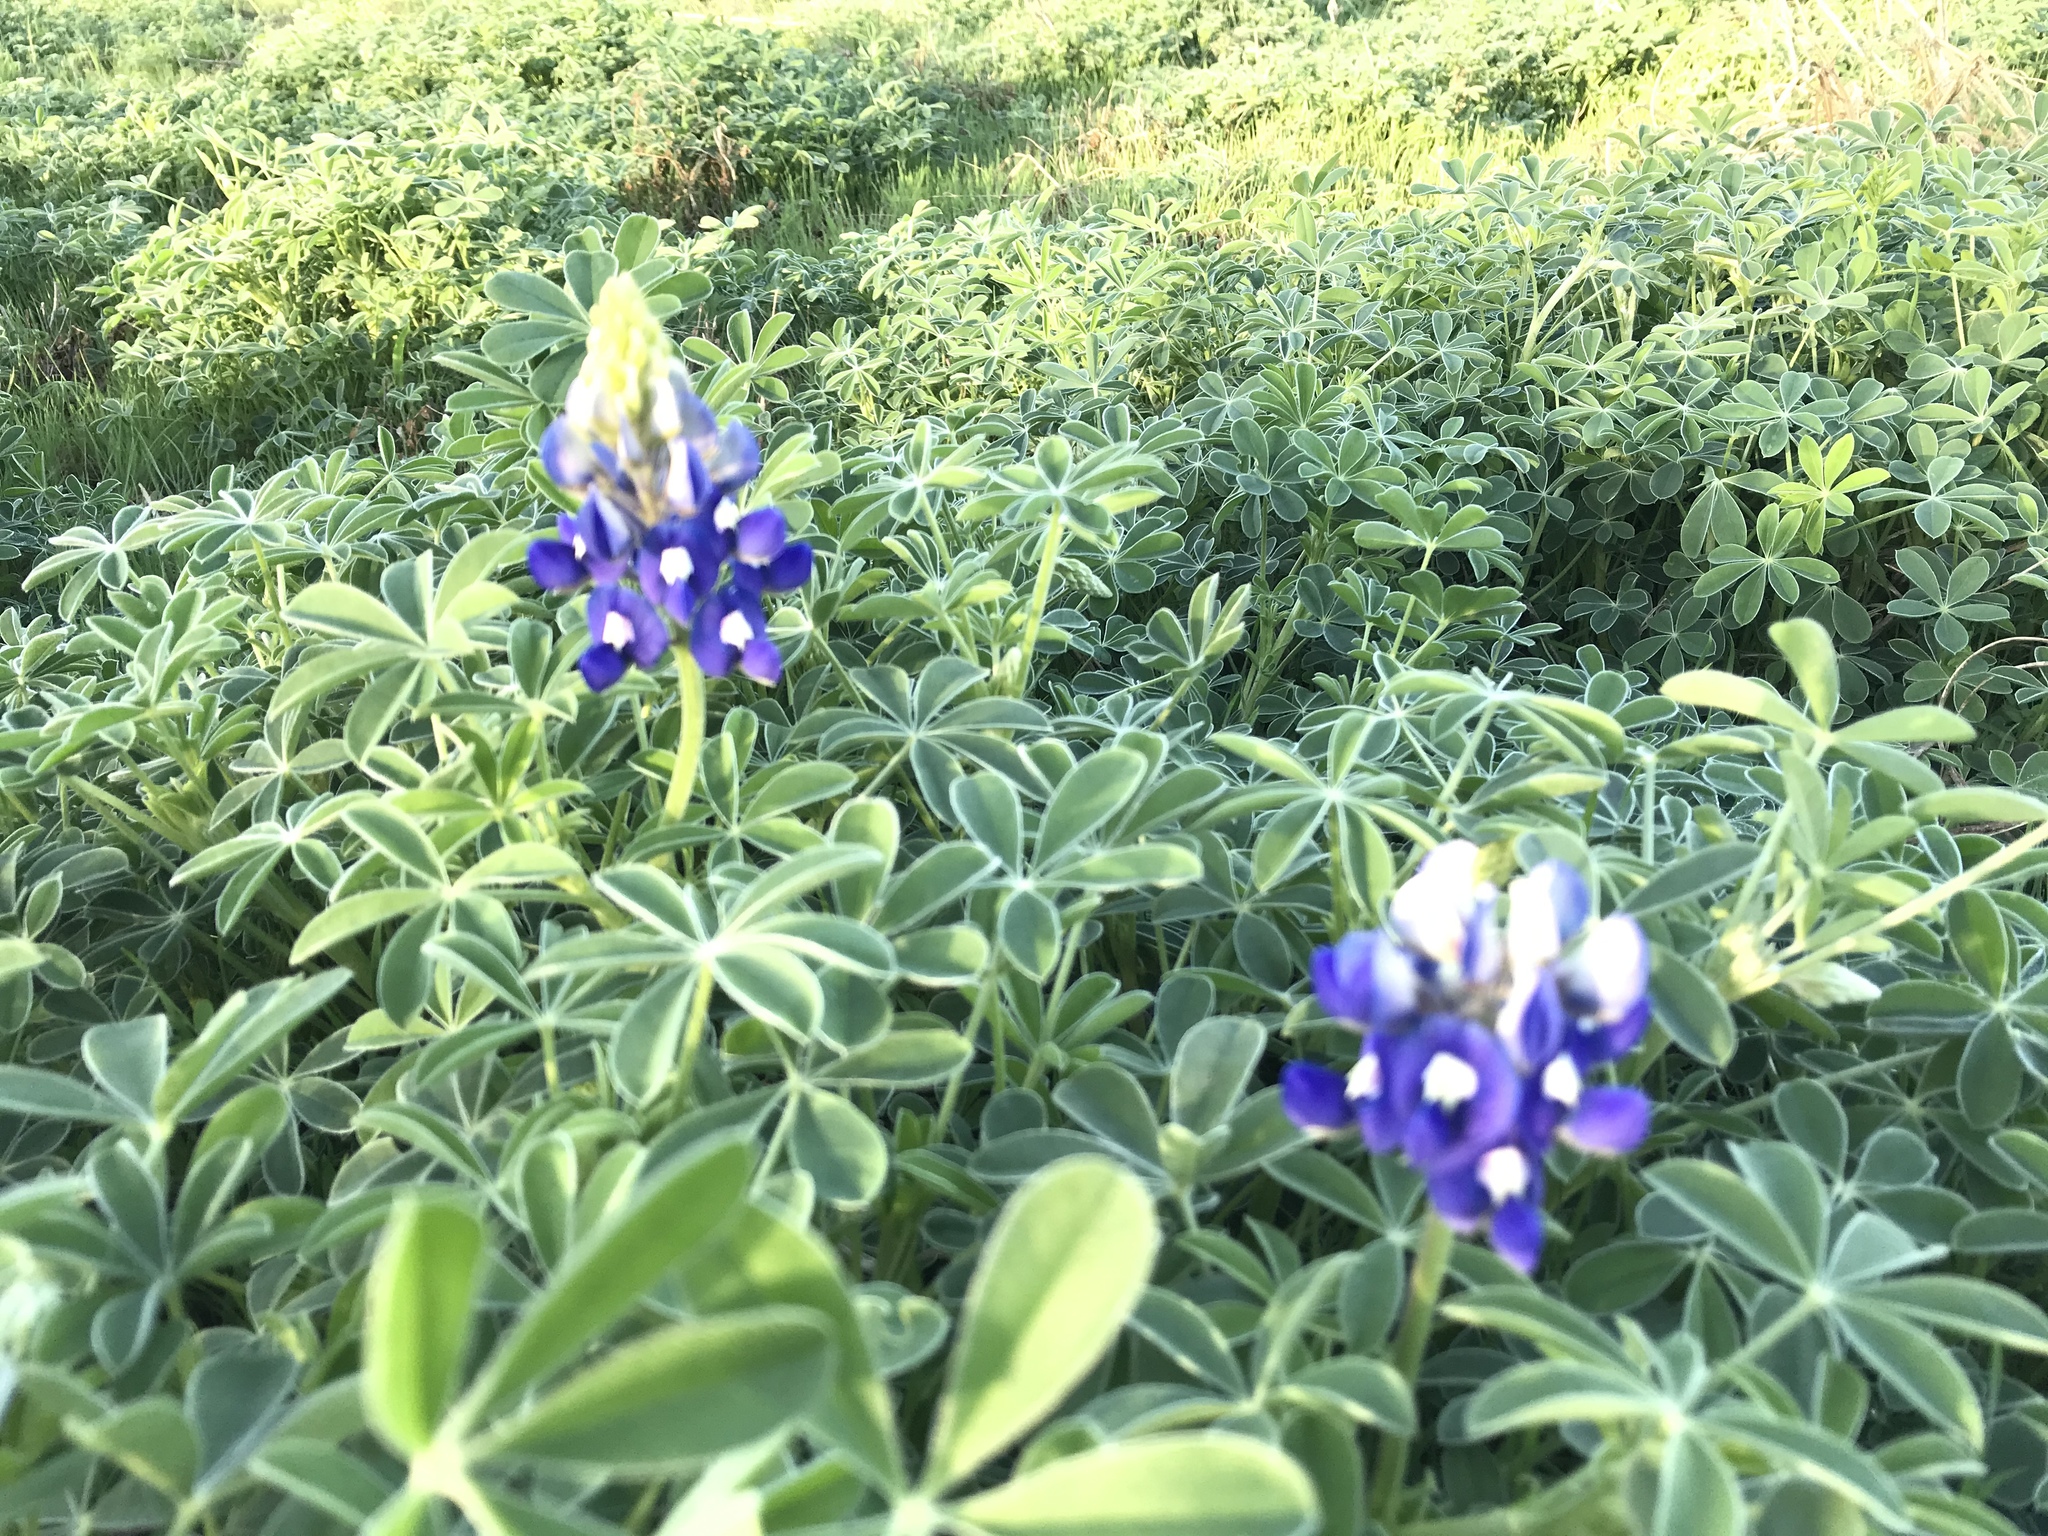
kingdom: Plantae
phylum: Tracheophyta
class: Magnoliopsida
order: Fabales
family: Fabaceae
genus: Lupinus
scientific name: Lupinus texensis
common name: Texas bluebonnet
